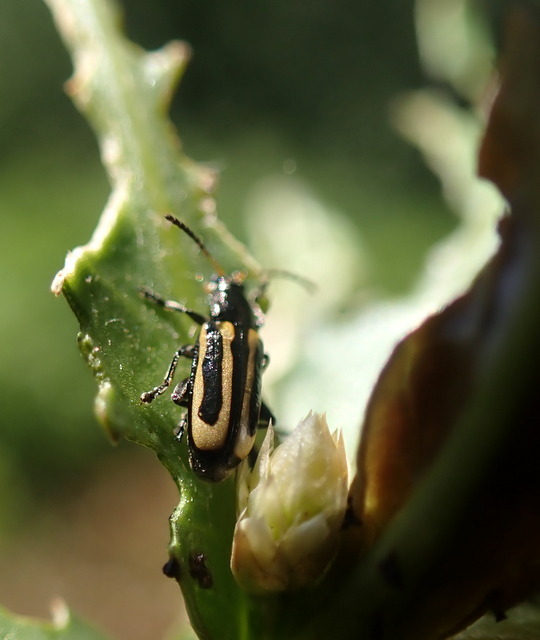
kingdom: Animalia
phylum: Arthropoda
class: Insecta
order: Coleoptera
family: Chrysomelidae
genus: Agasicles
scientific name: Agasicles hygrophila
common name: Alligatorweed flea beetle
